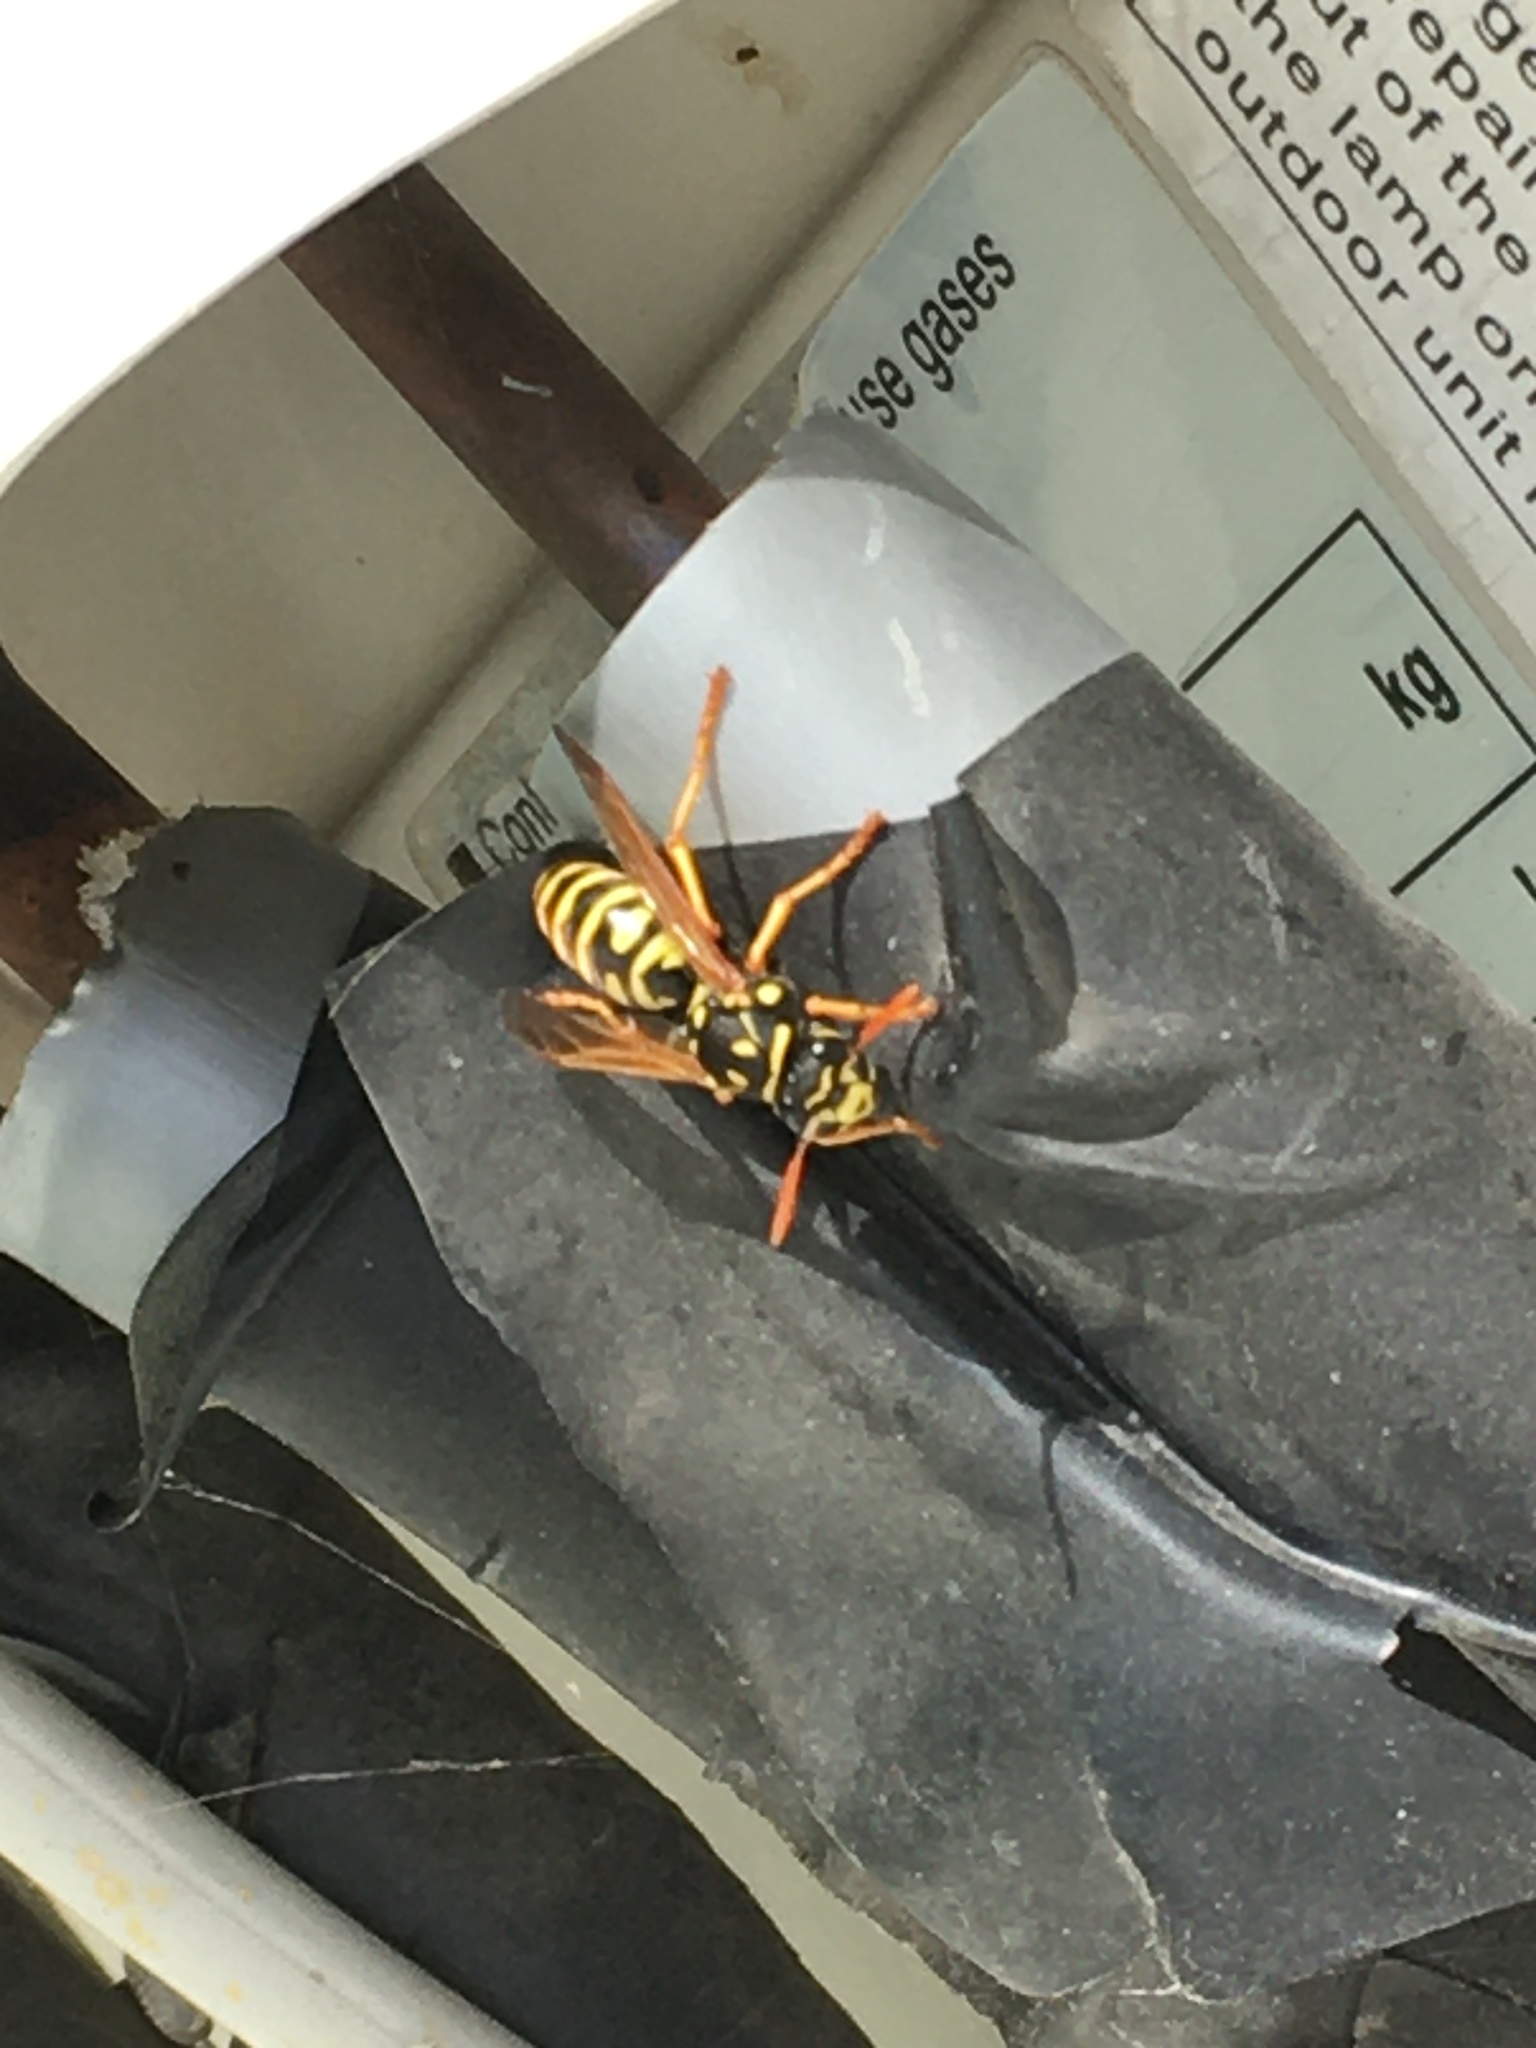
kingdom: Animalia
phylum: Arthropoda
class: Insecta
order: Hymenoptera
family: Eumenidae
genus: Polistes
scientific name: Polistes dominula
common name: Paper wasp
